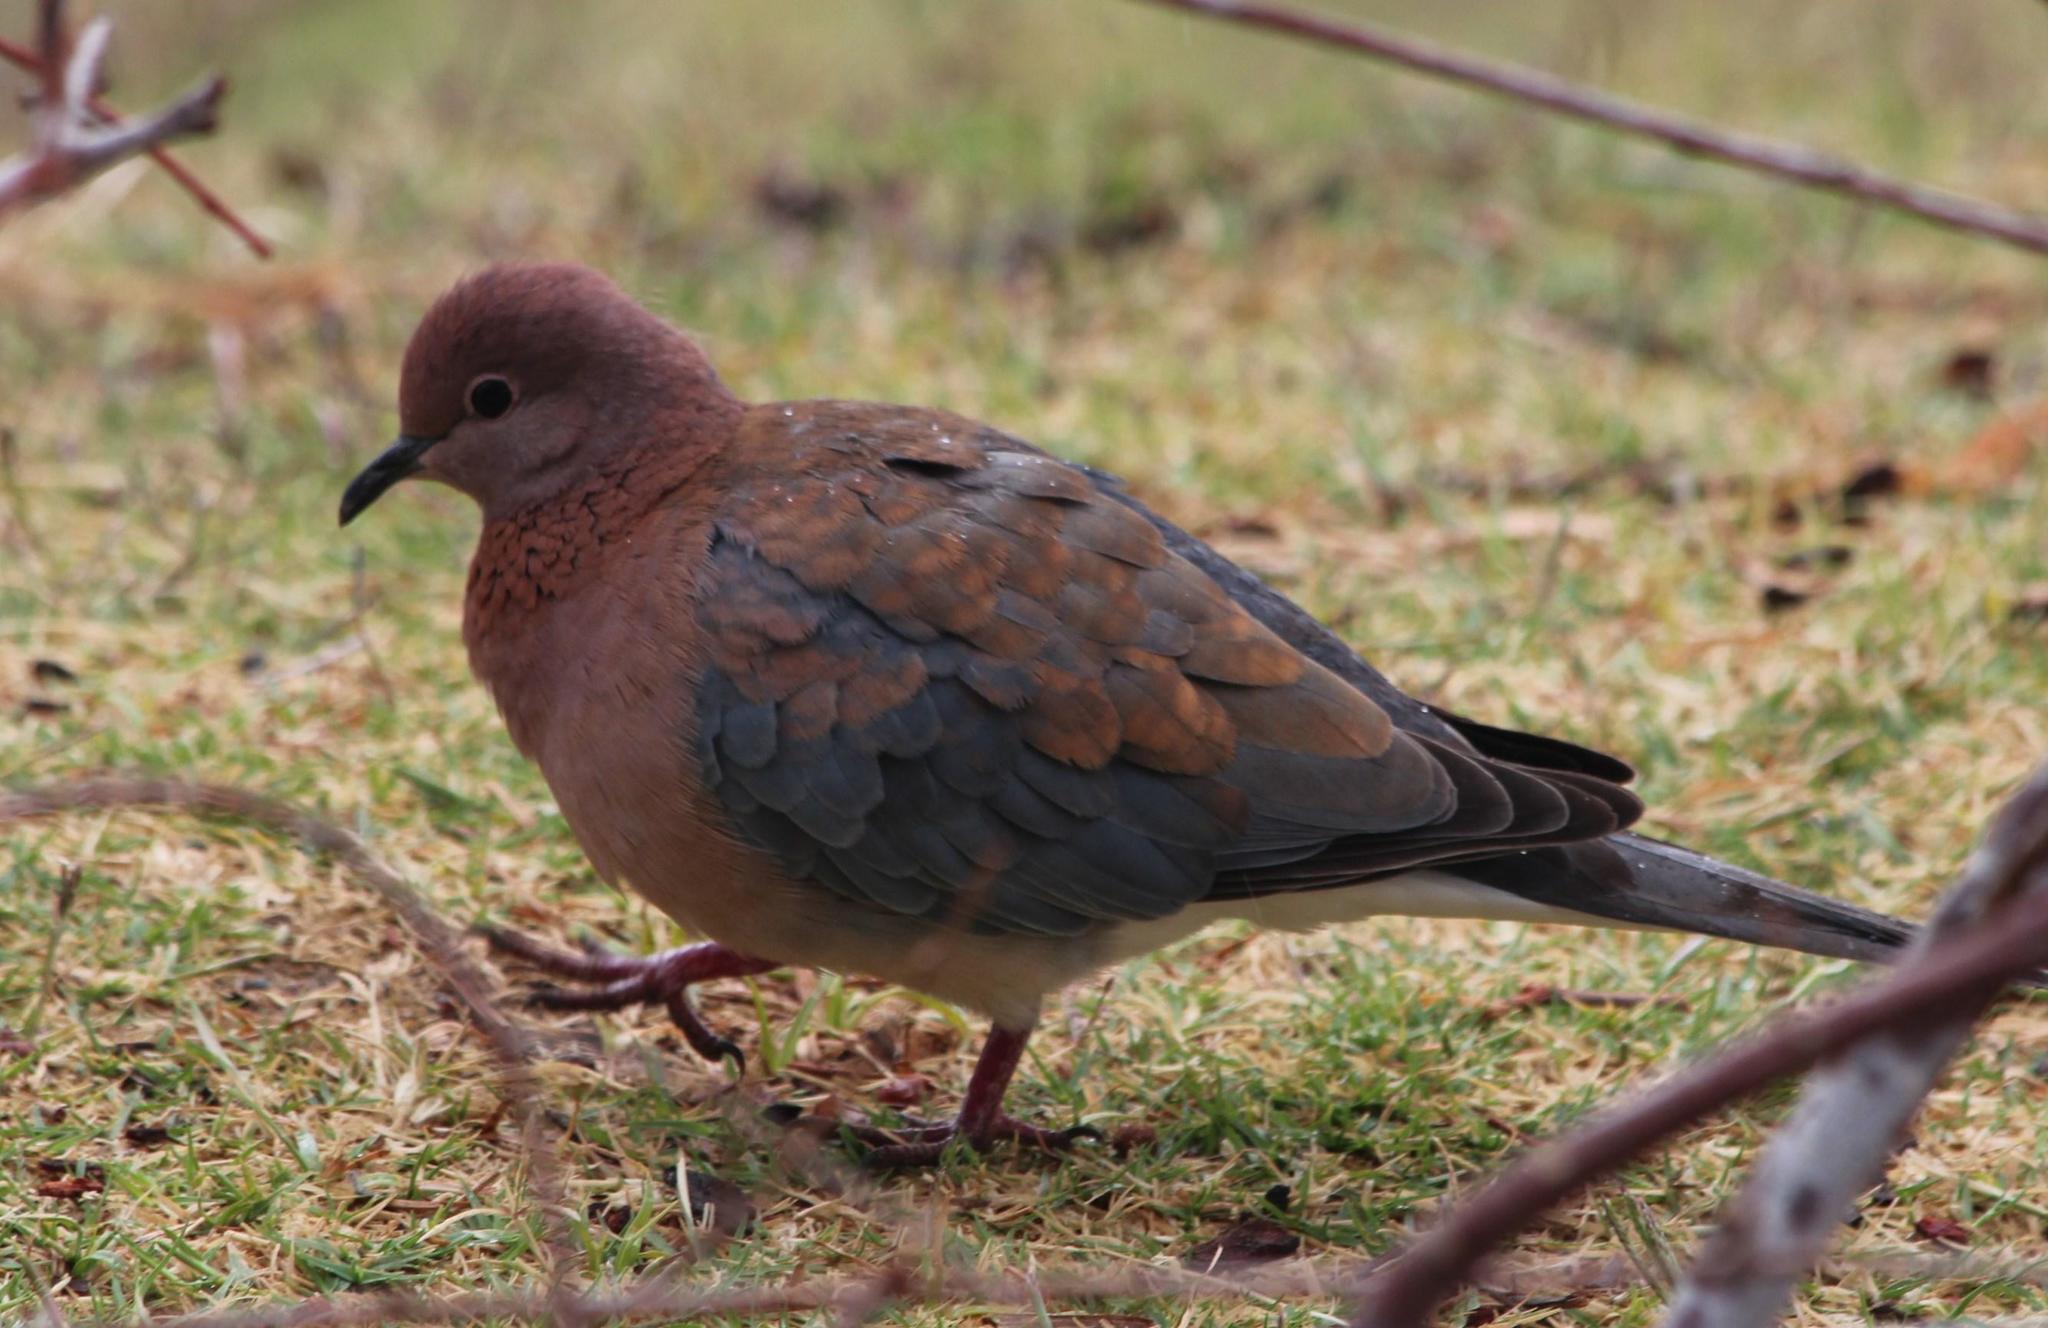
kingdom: Animalia
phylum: Chordata
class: Aves
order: Columbiformes
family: Columbidae
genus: Spilopelia
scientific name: Spilopelia senegalensis
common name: Laughing dove
